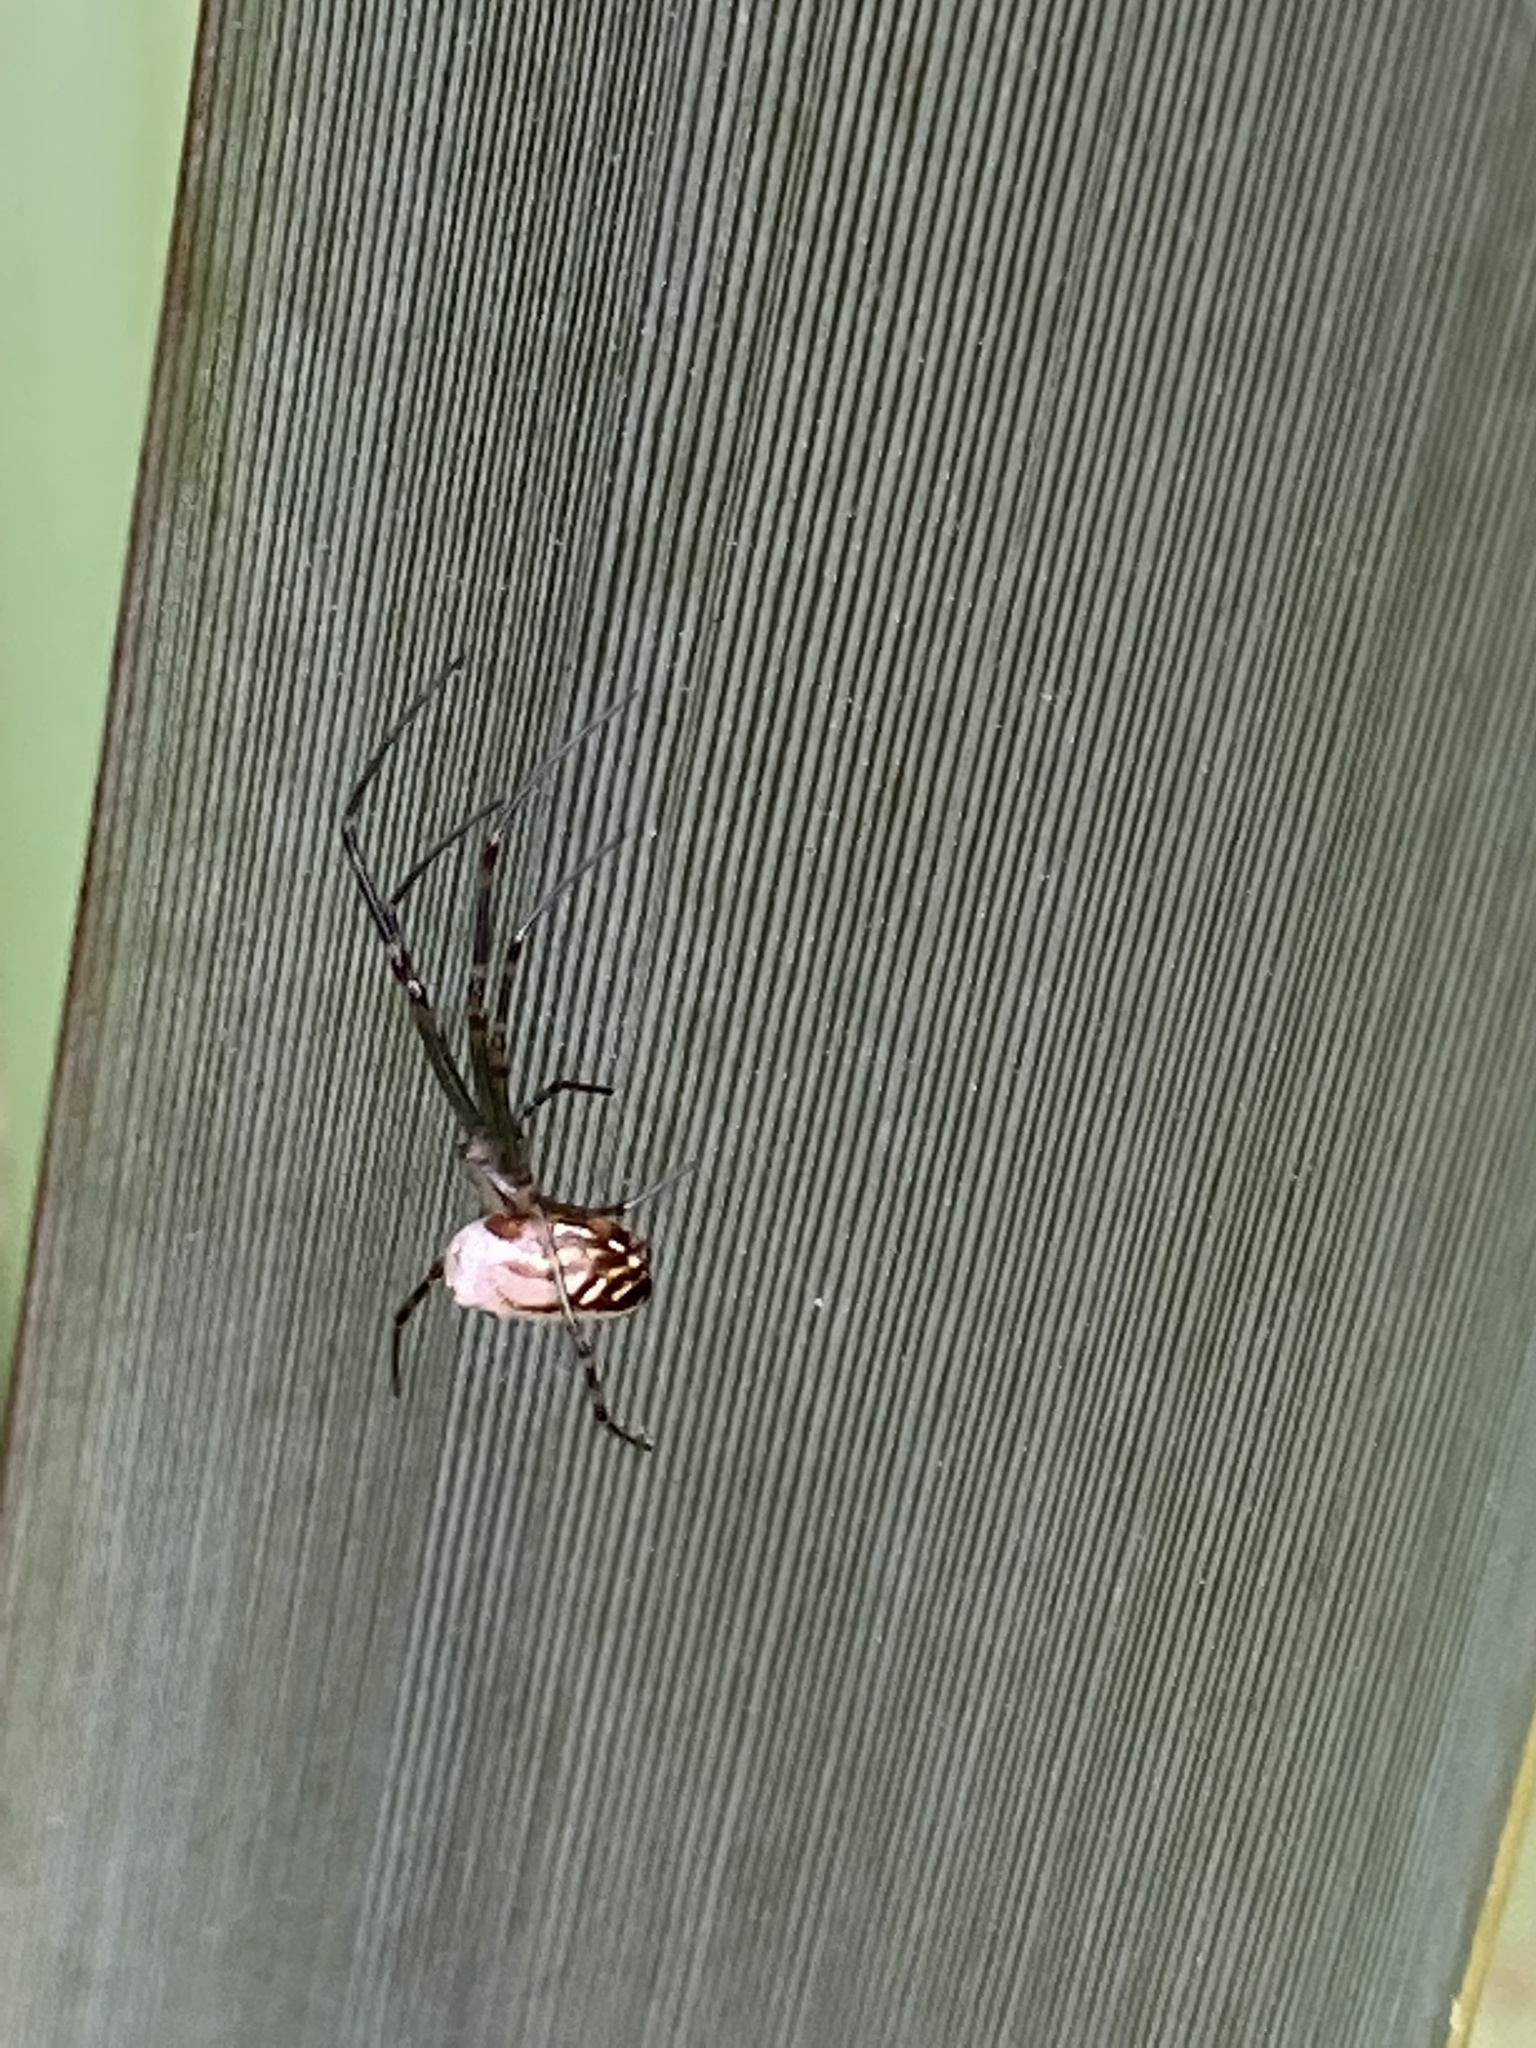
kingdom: Animalia
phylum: Arthropoda
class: Arachnida
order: Araneae
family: Tetragnathidae
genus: Leucauge
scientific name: Leucauge dromedaria
